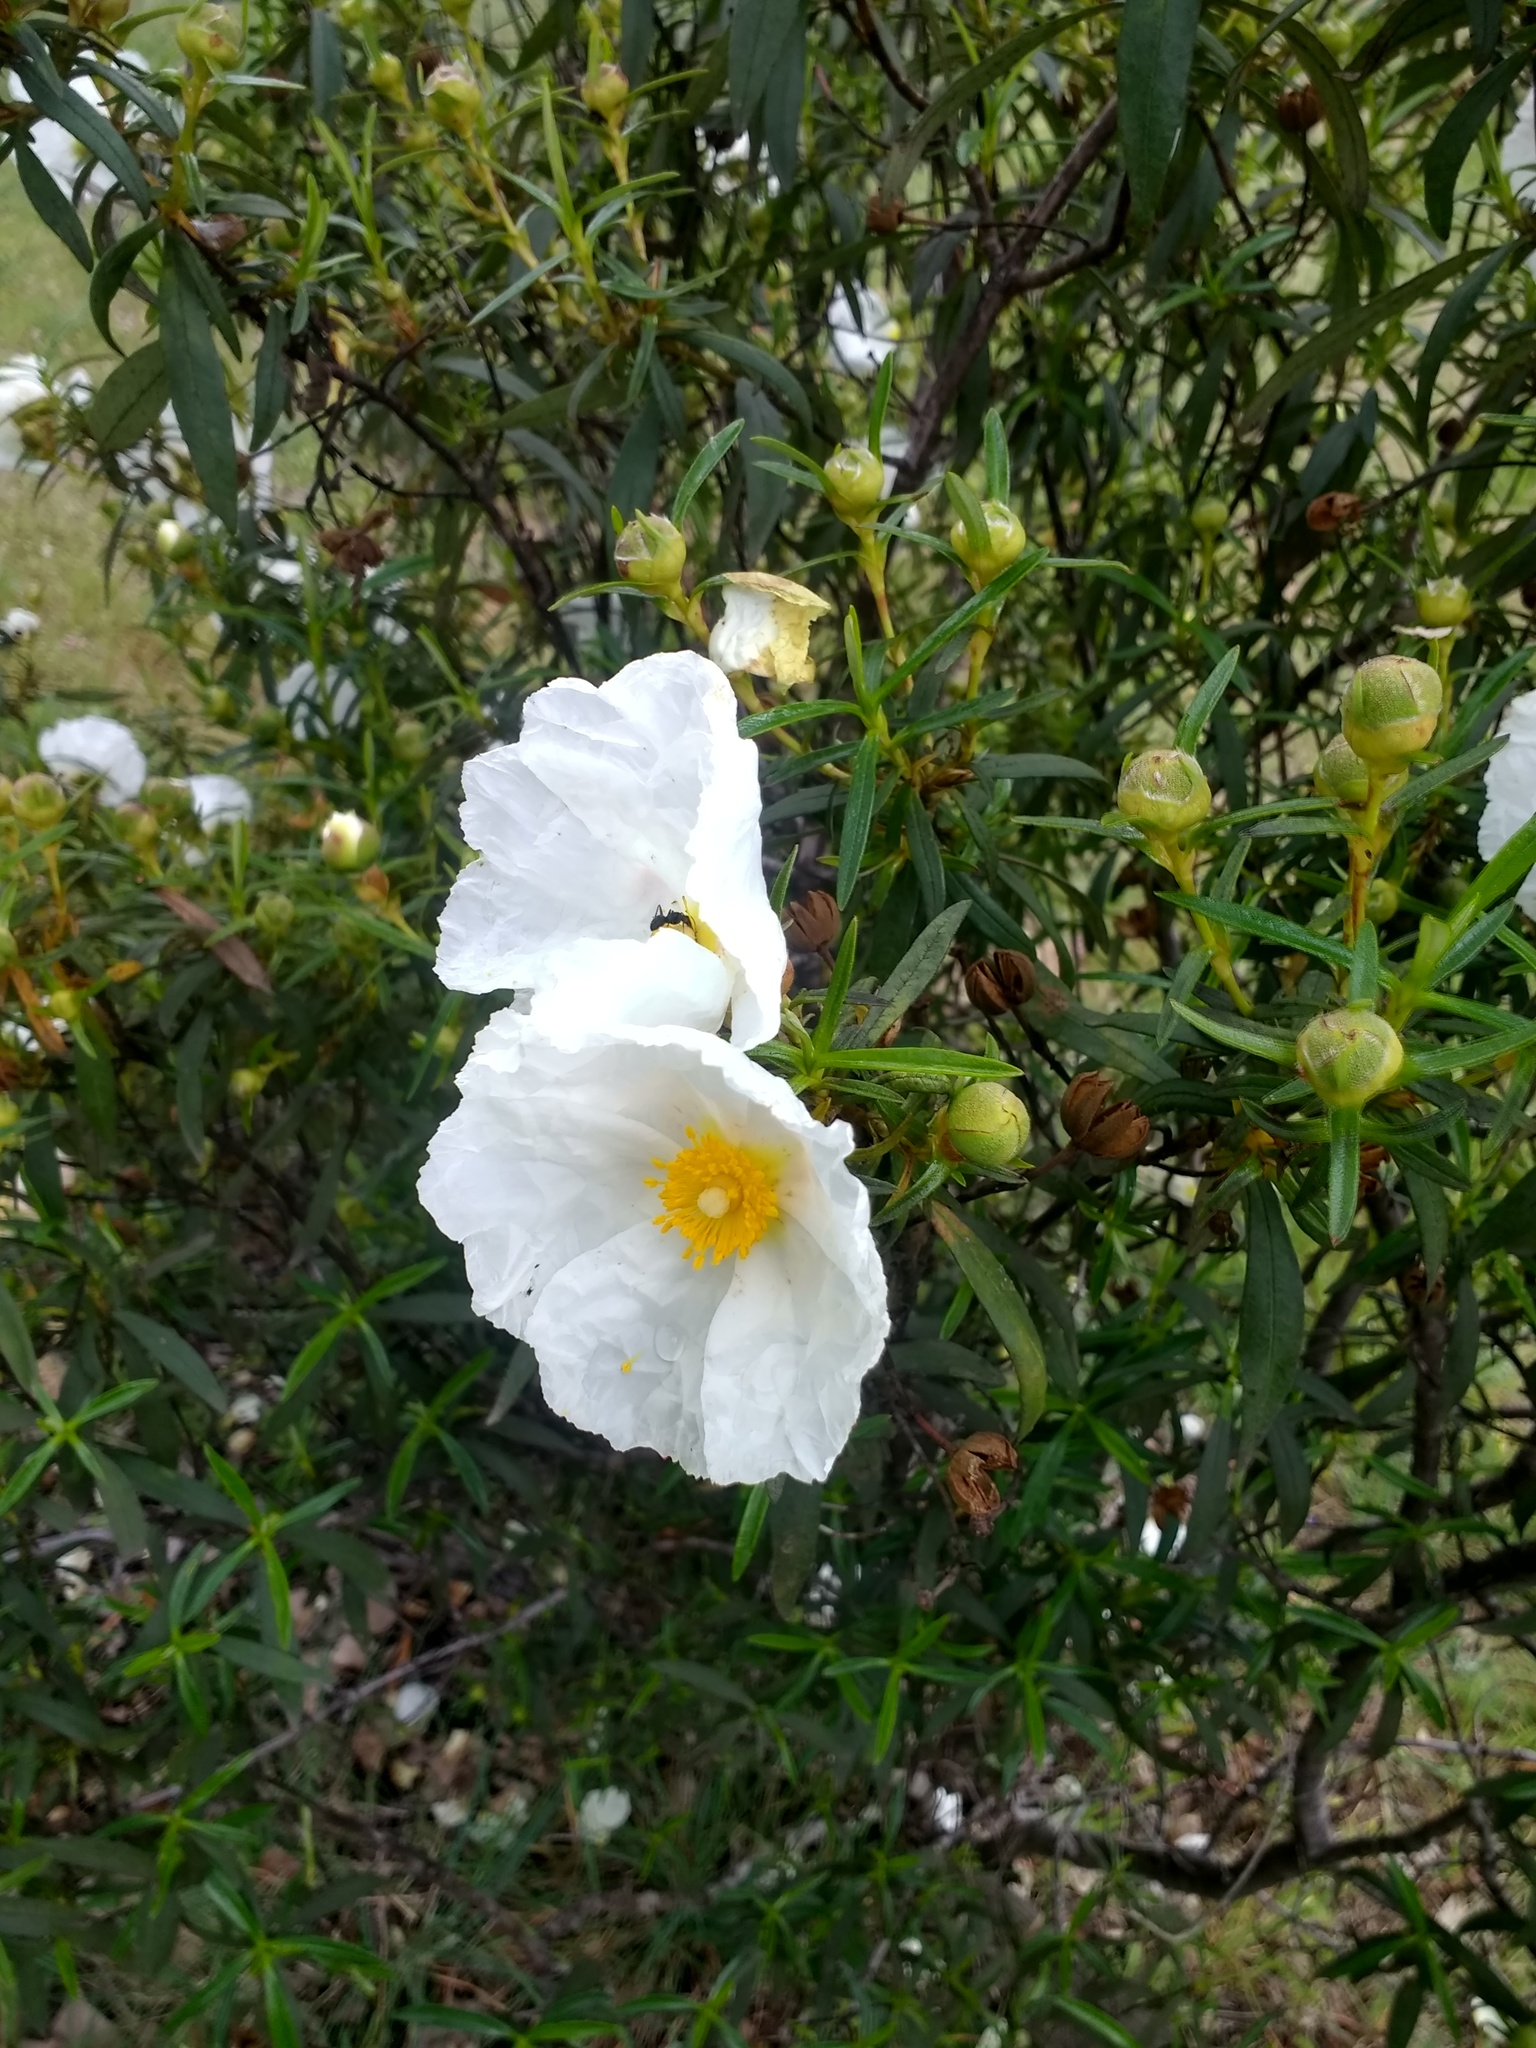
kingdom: Plantae
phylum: Tracheophyta
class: Magnoliopsida
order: Malvales
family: Cistaceae
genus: Cistus
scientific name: Cistus ladanifer
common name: Common gum cistus
